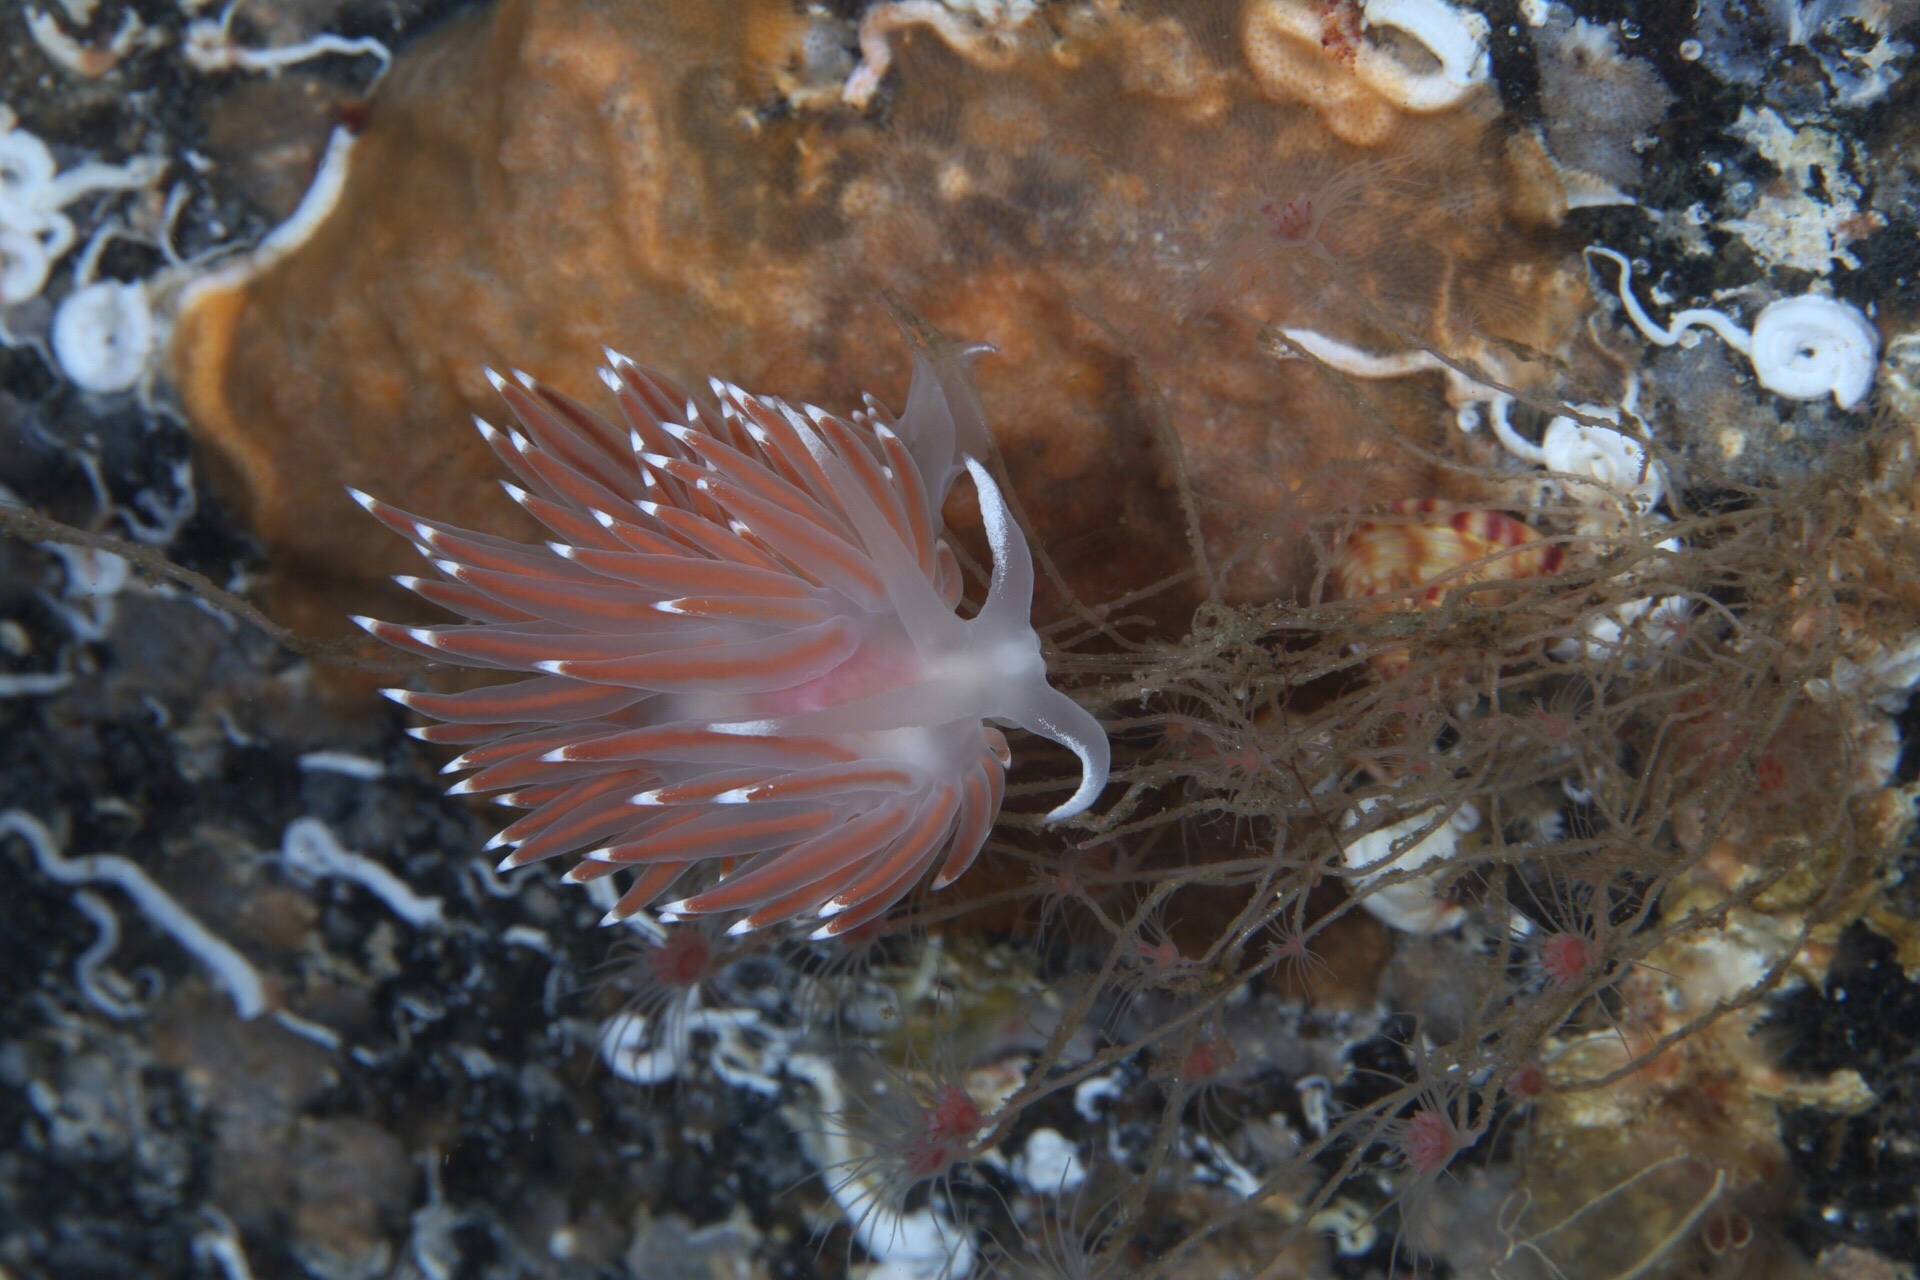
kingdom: Animalia
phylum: Mollusca
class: Gastropoda
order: Nudibranchia
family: Coryphellidae
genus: Coryphella
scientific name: Coryphella nobilis
